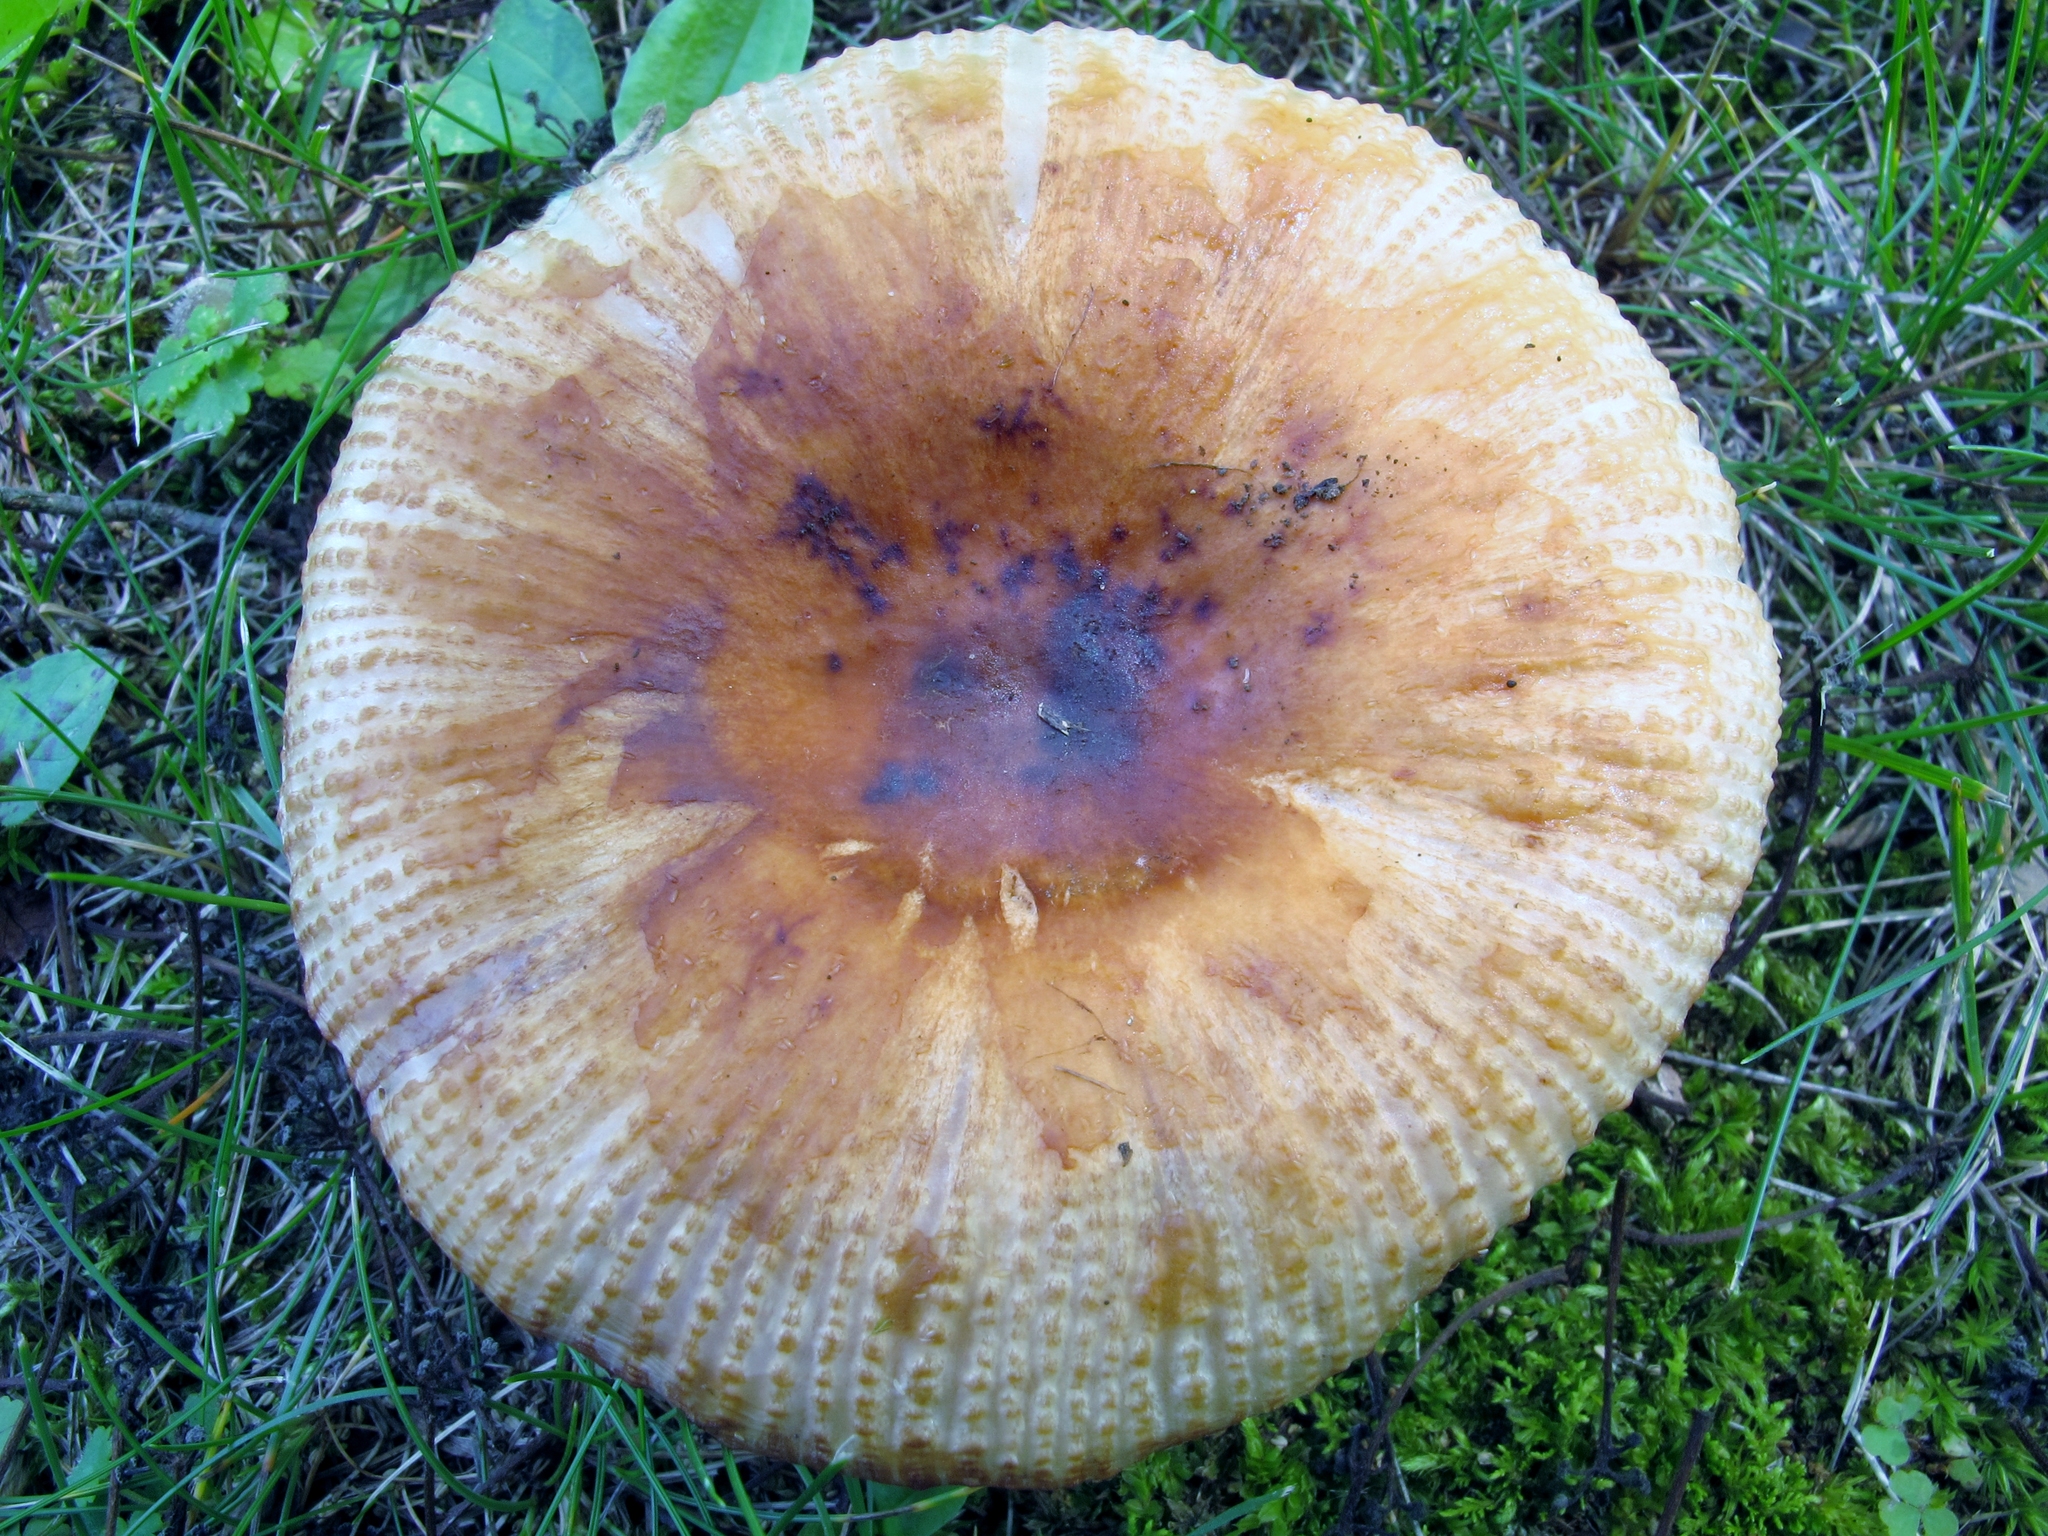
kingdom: Fungi
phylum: Basidiomycota
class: Agaricomycetes
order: Russulales
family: Russulaceae
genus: Russula
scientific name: Russula grata
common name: Bitter almond brittlegill
